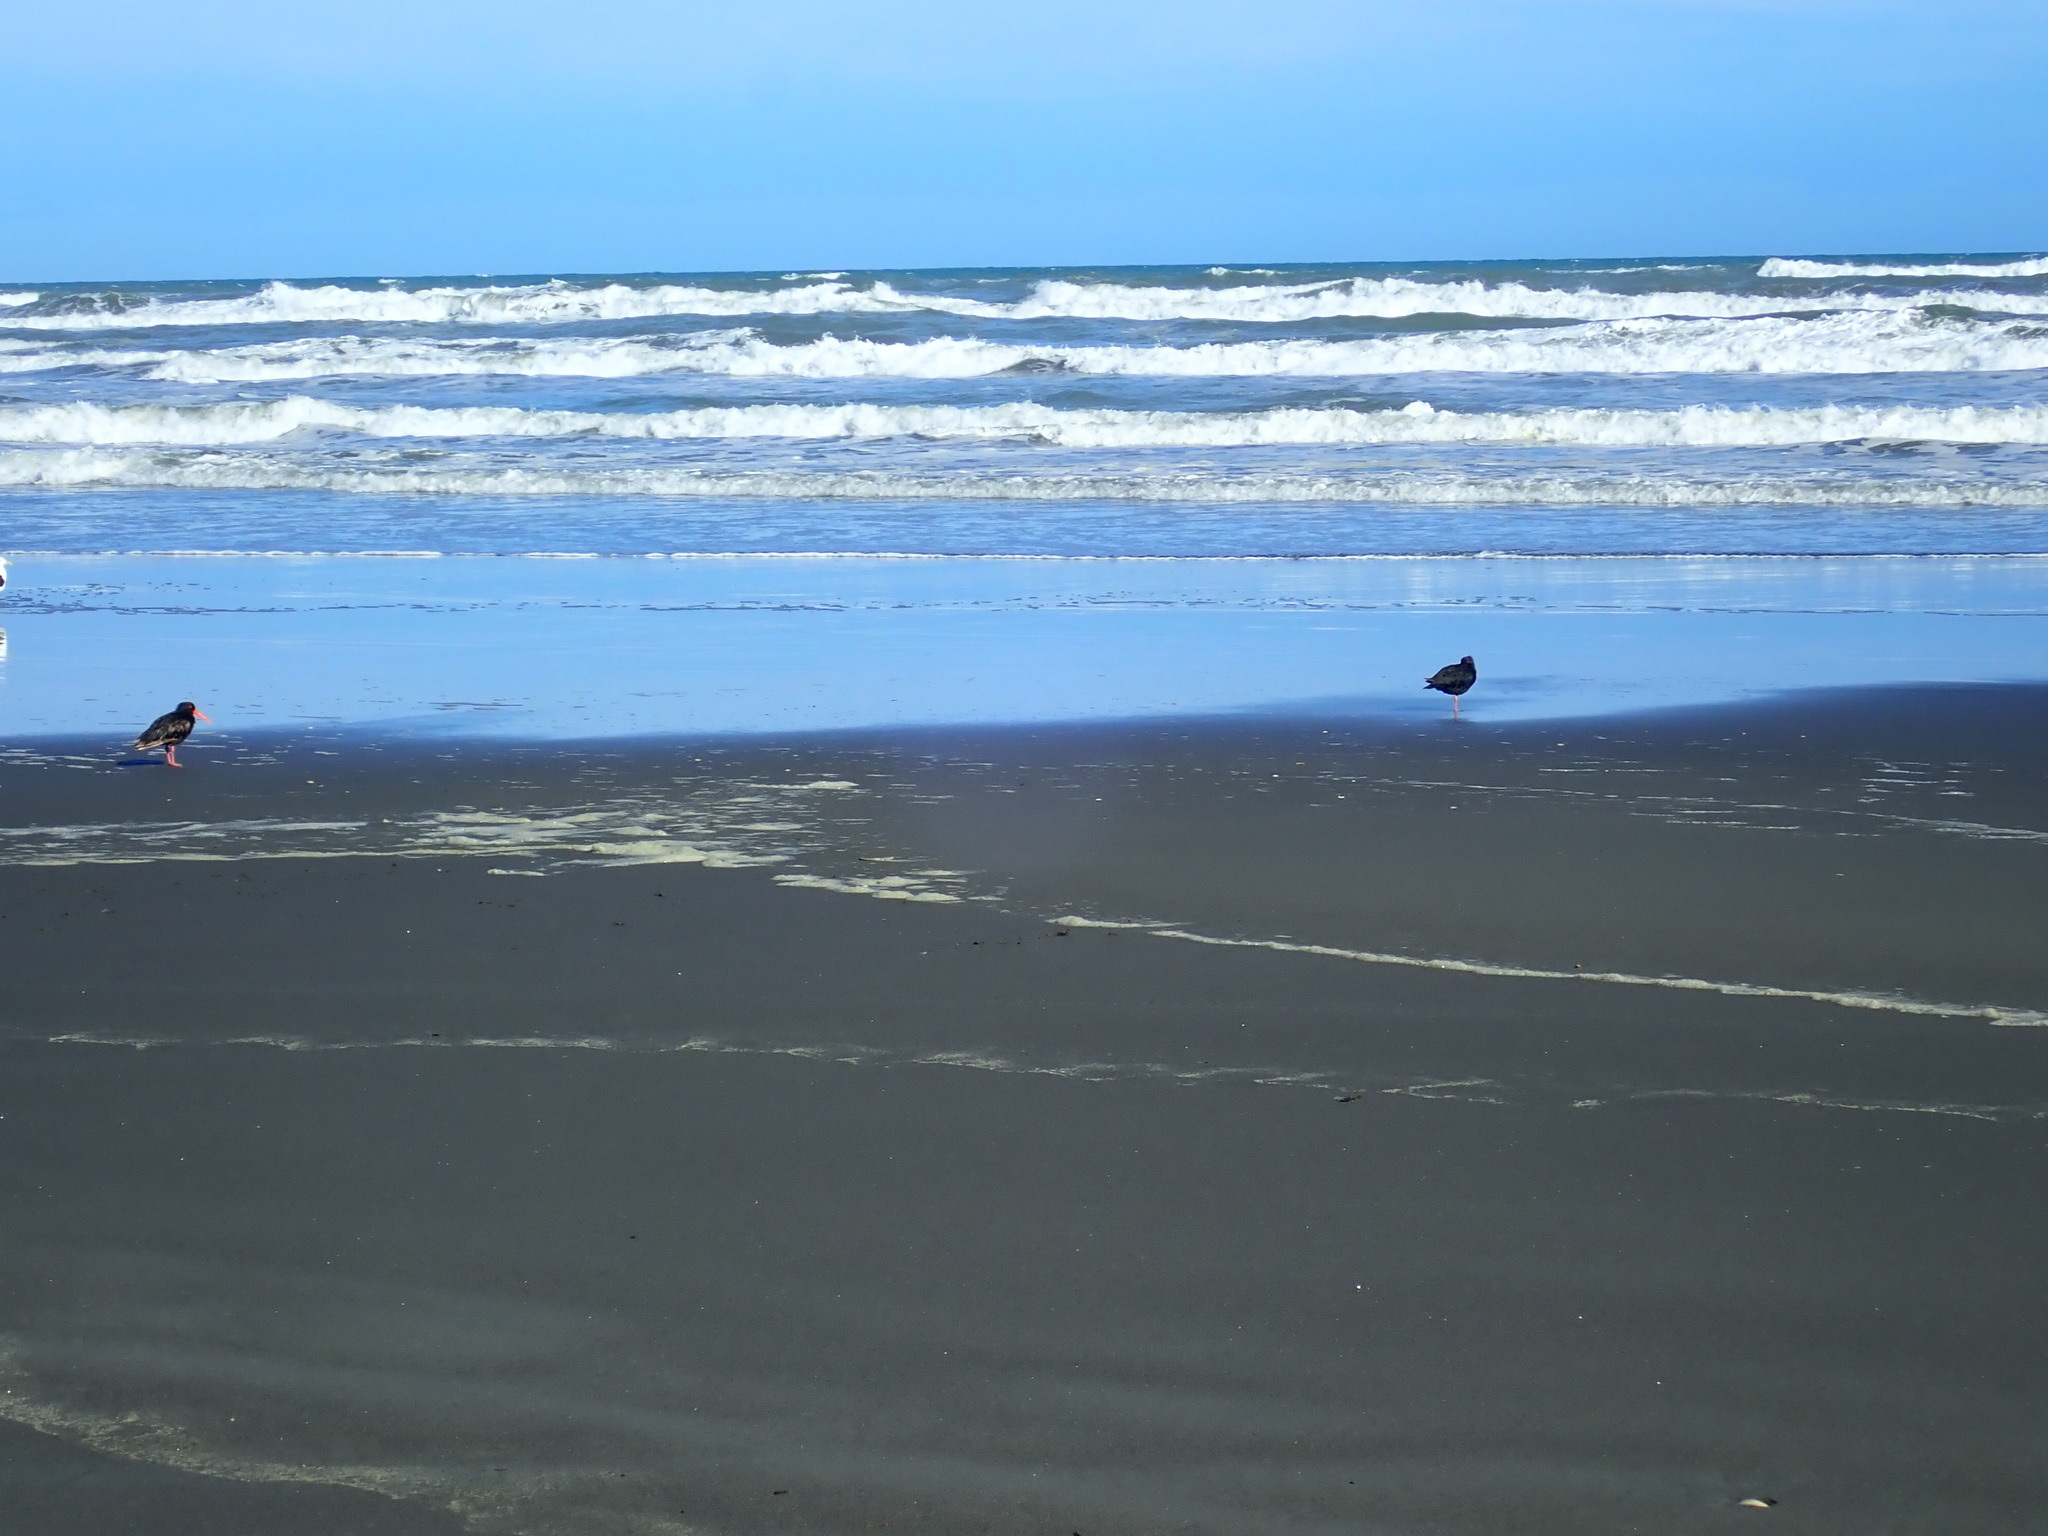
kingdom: Animalia
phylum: Chordata
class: Aves
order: Charadriiformes
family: Haematopodidae
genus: Haematopus
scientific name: Haematopus unicolor
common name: Variable oystercatcher
